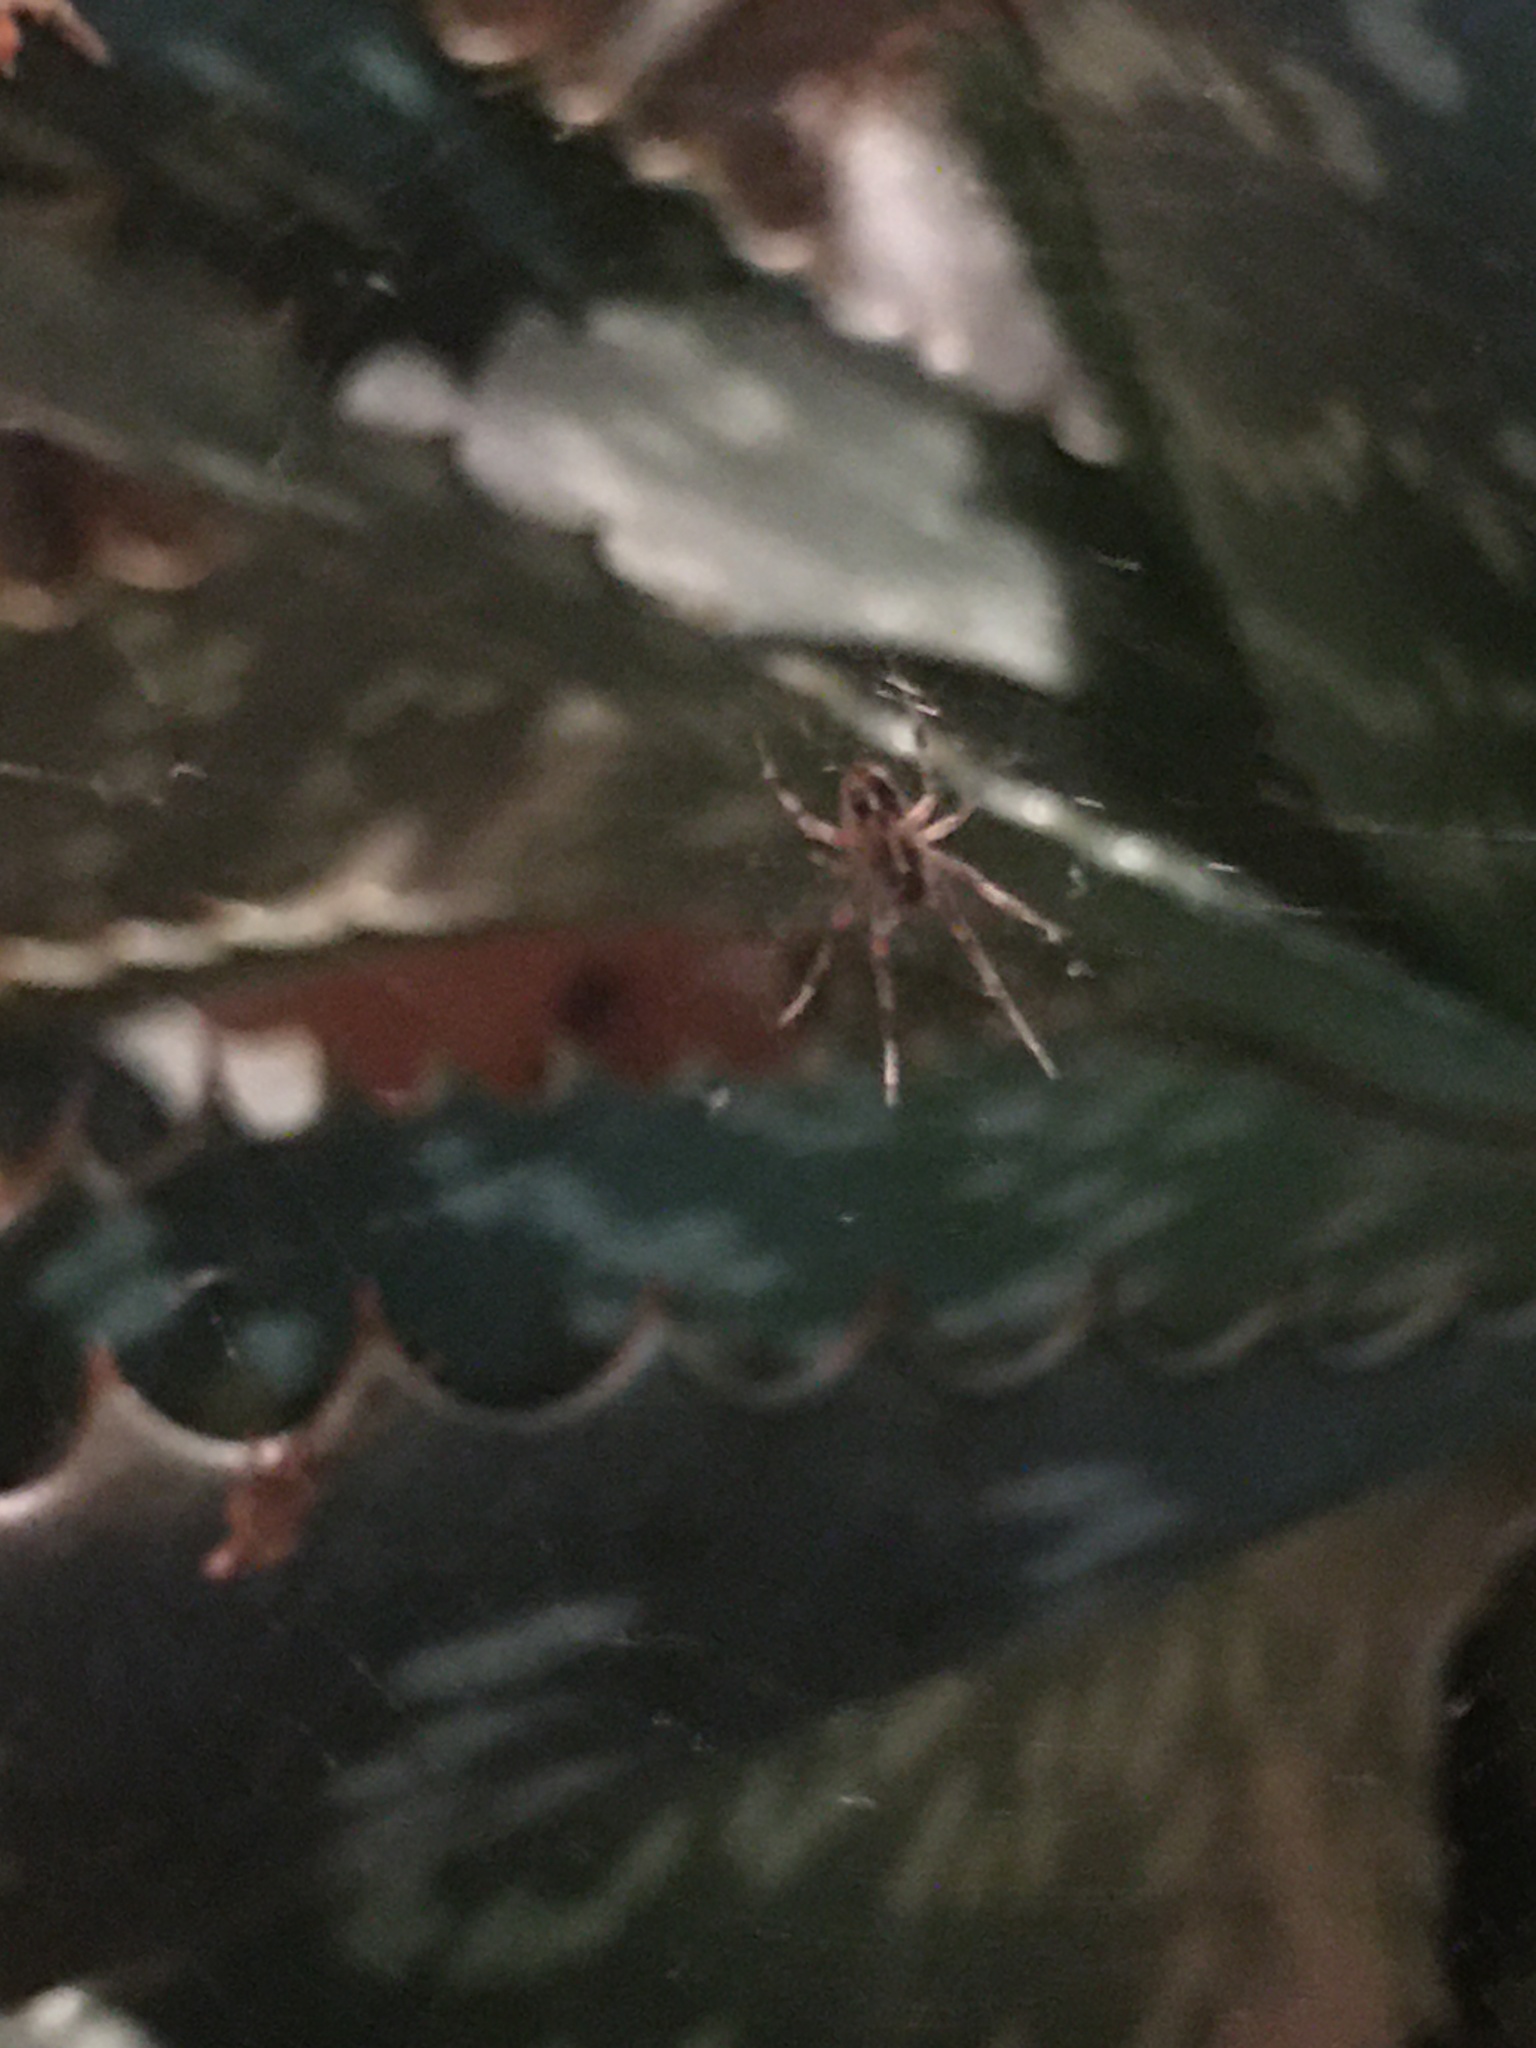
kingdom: Animalia
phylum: Arthropoda
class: Arachnida
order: Araneae
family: Araneidae
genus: Metepeira
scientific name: Metepeira
